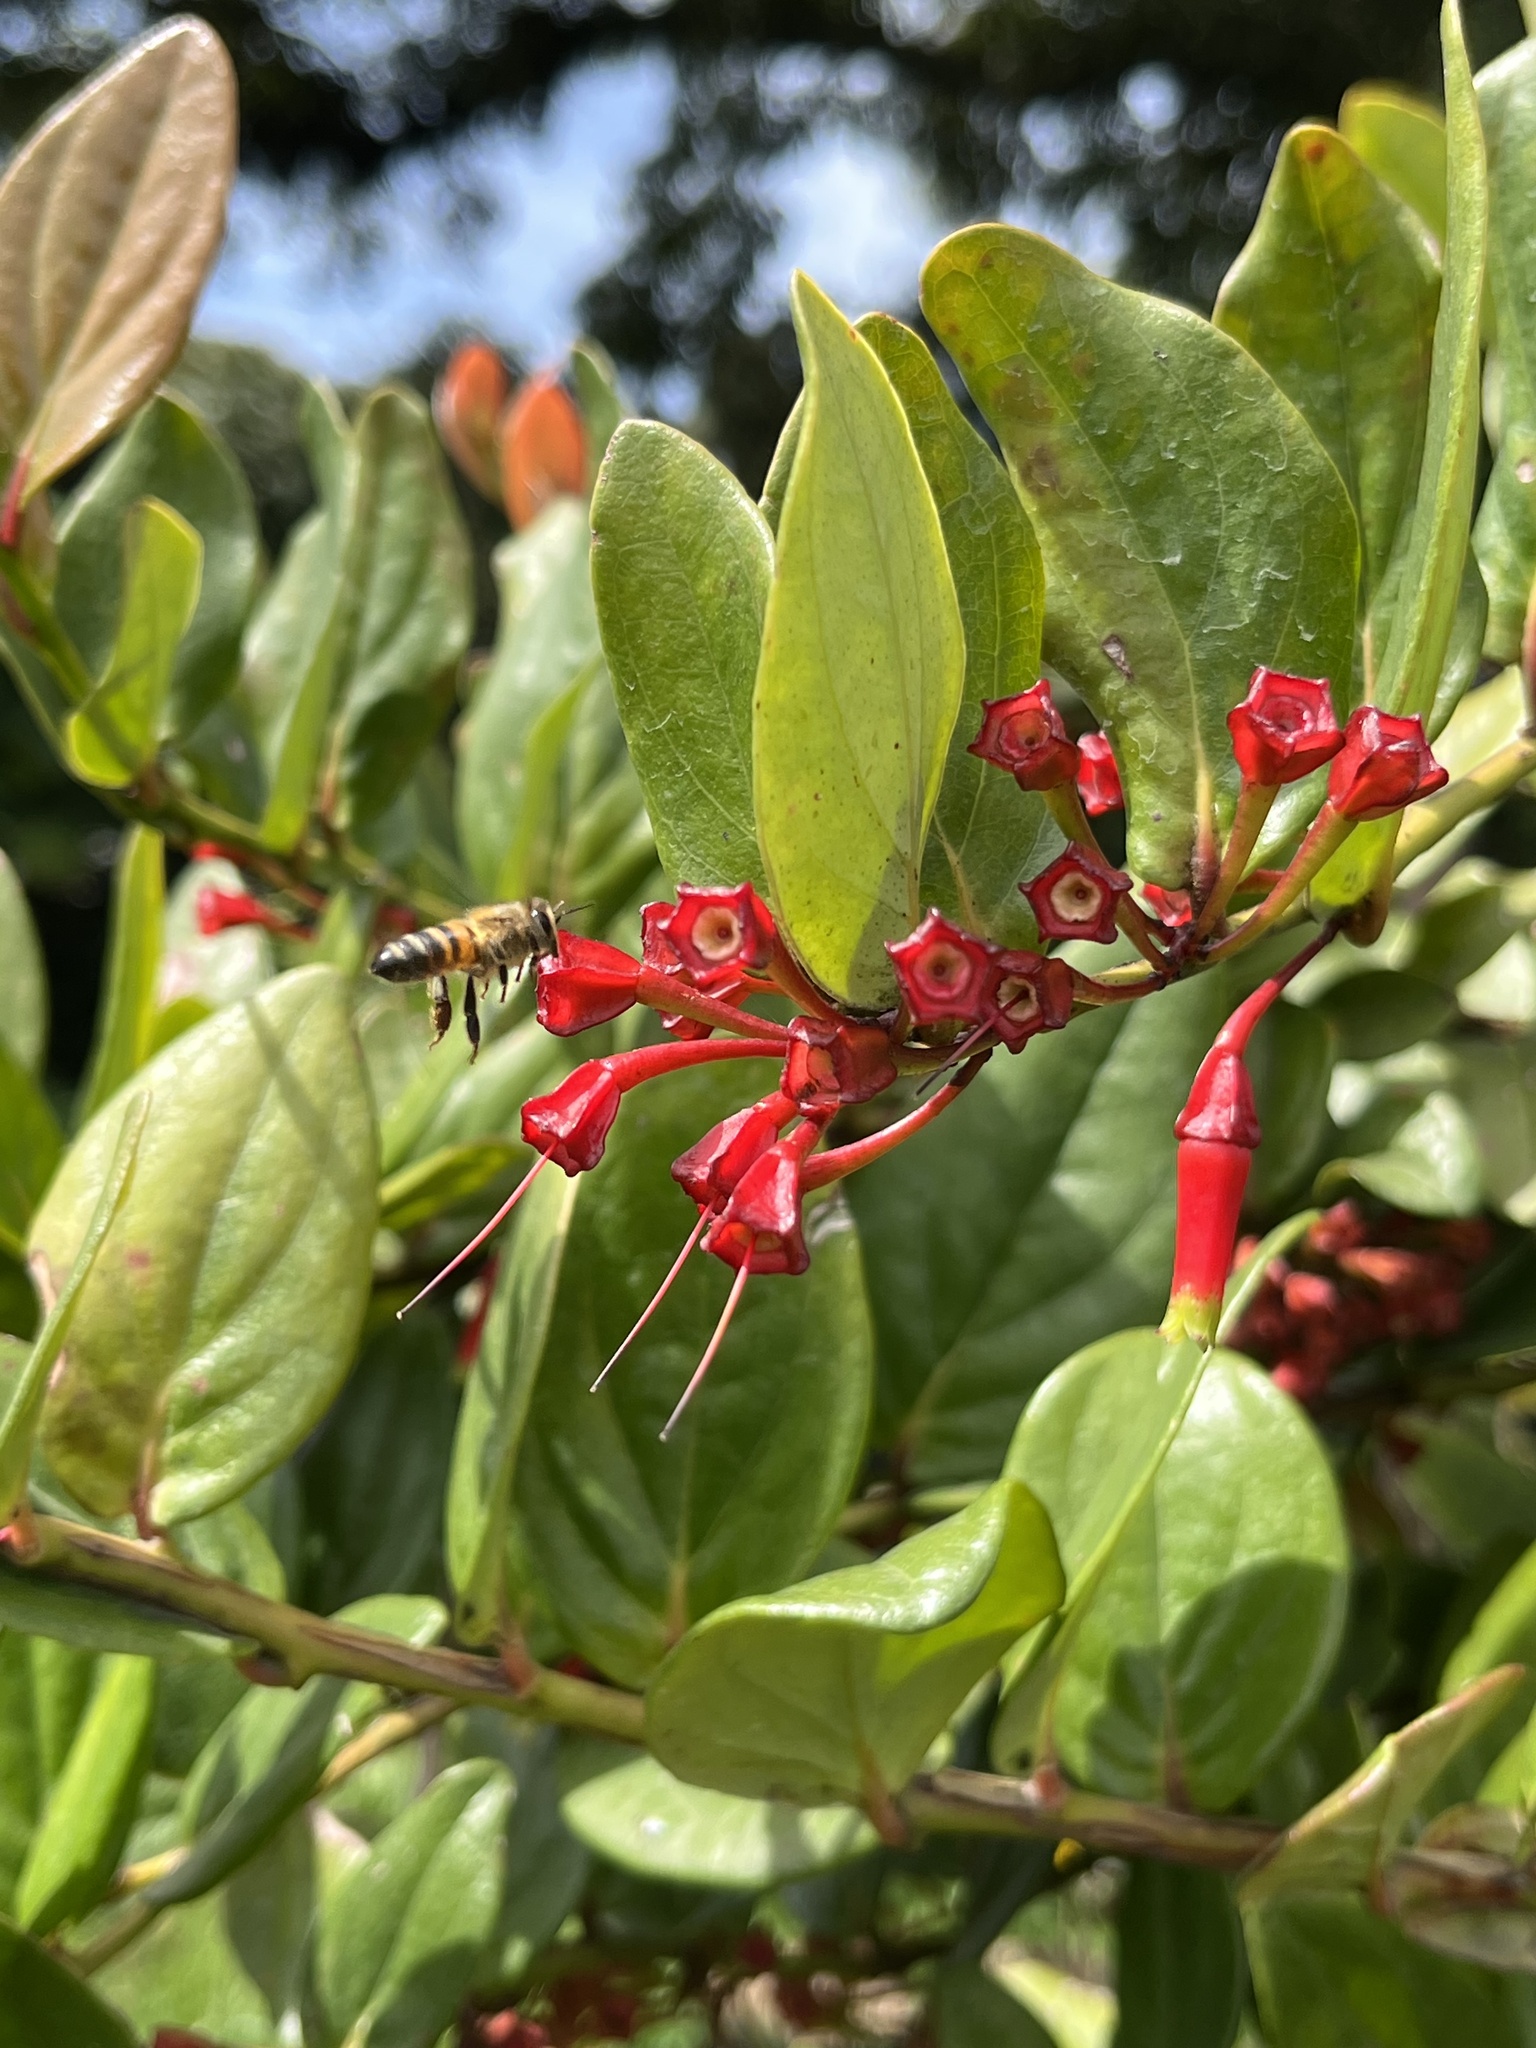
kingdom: Animalia
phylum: Arthropoda
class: Insecta
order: Hymenoptera
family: Apidae
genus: Apis
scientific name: Apis mellifera
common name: Honey bee
